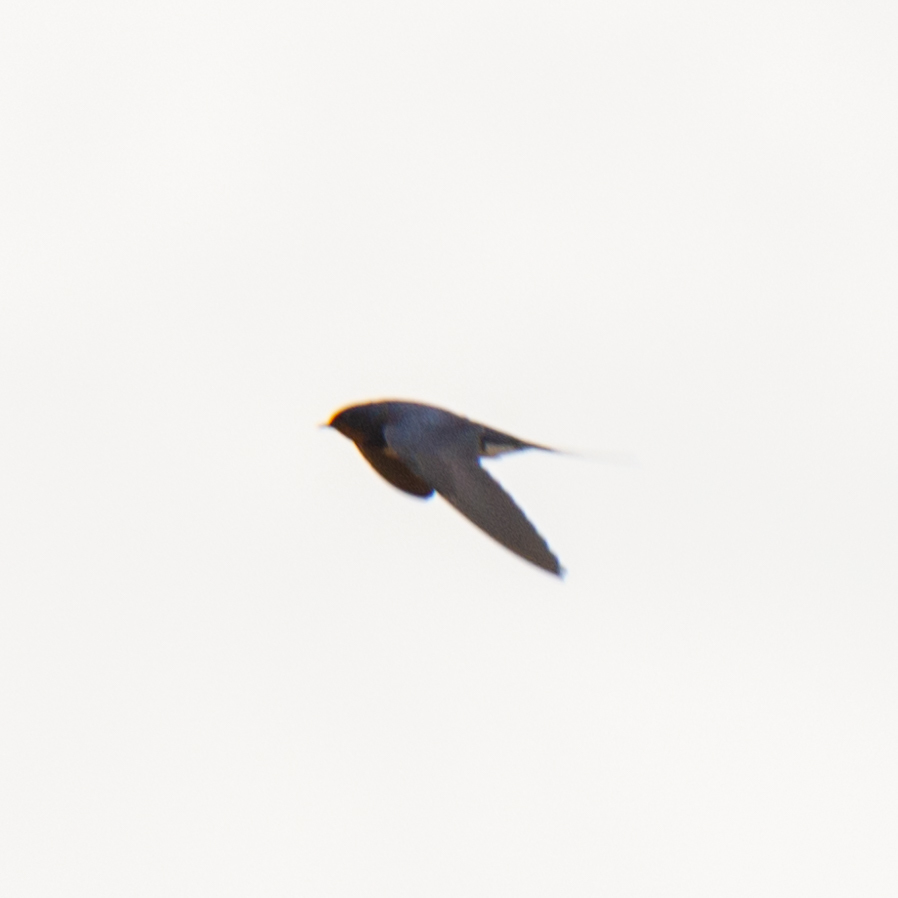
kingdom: Animalia
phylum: Chordata
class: Aves
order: Passeriformes
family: Hirundinidae
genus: Hirundo
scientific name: Hirundo rustica
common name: Barn swallow
